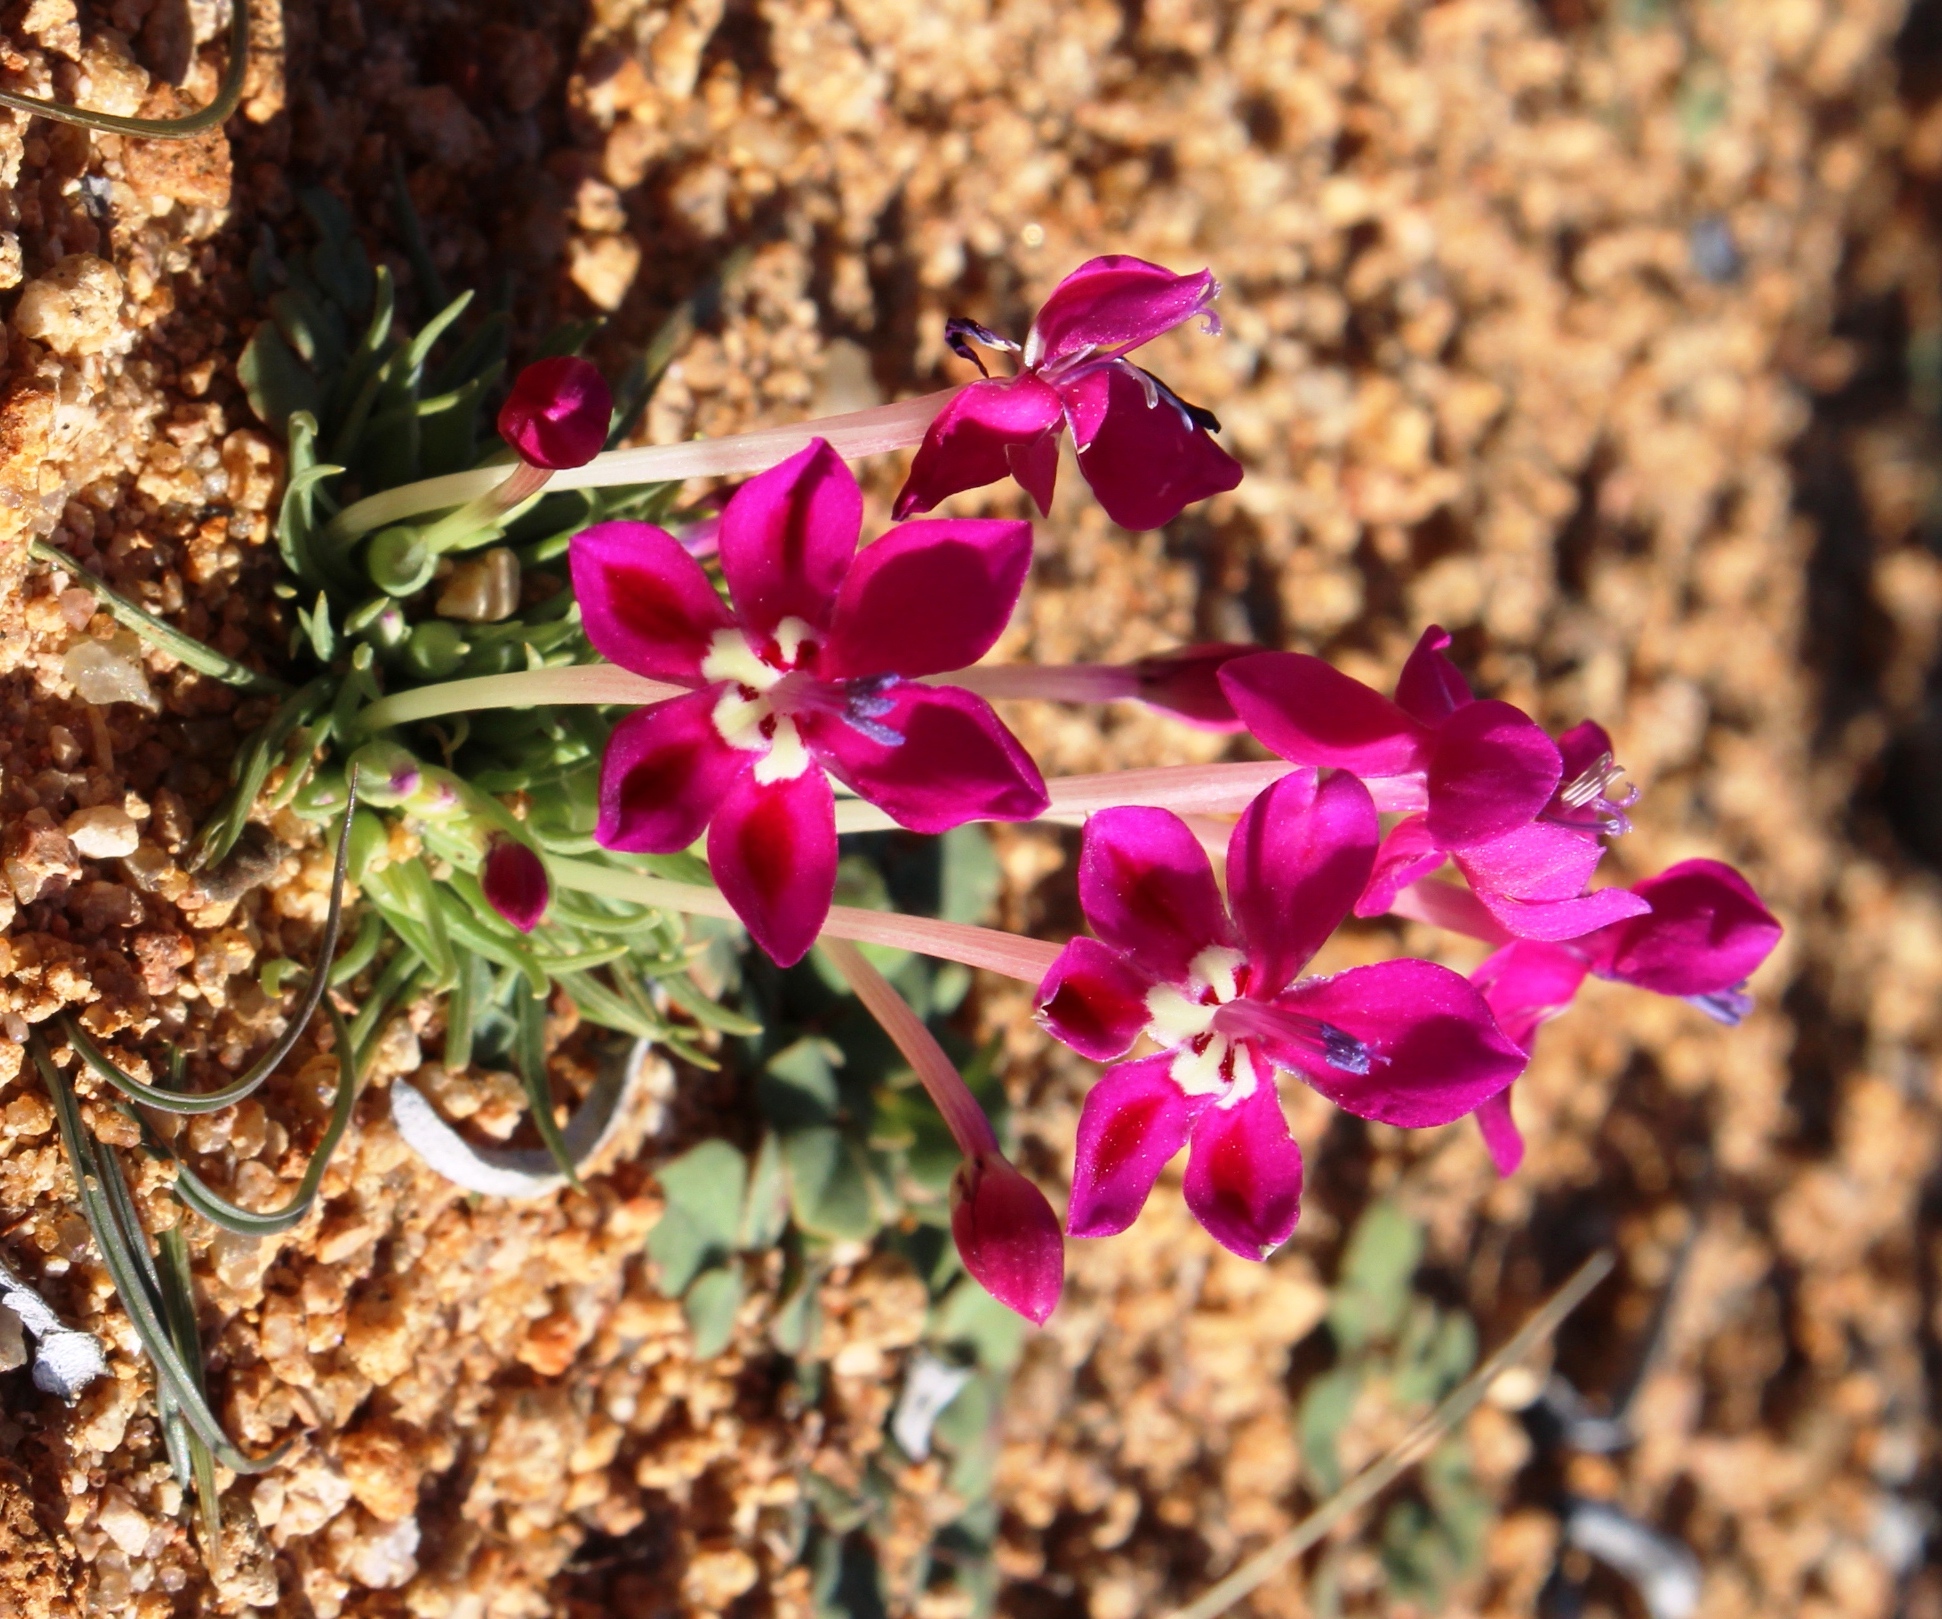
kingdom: Plantae
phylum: Tracheophyta
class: Liliopsida
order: Asparagales
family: Iridaceae
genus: Lapeirousia
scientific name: Lapeirousia silenoides
